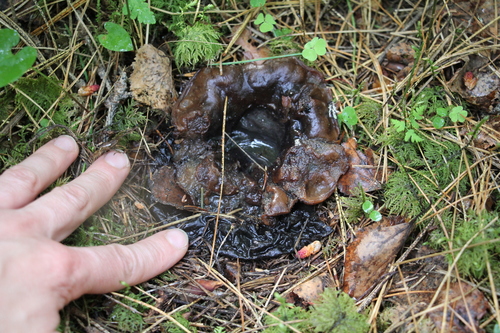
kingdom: Fungi
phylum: Ascomycota
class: Pezizomycetes
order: Pezizales
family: Sarcosomataceae
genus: Sarcosoma
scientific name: Sarcosoma globosum
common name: Charred-pancake cup
